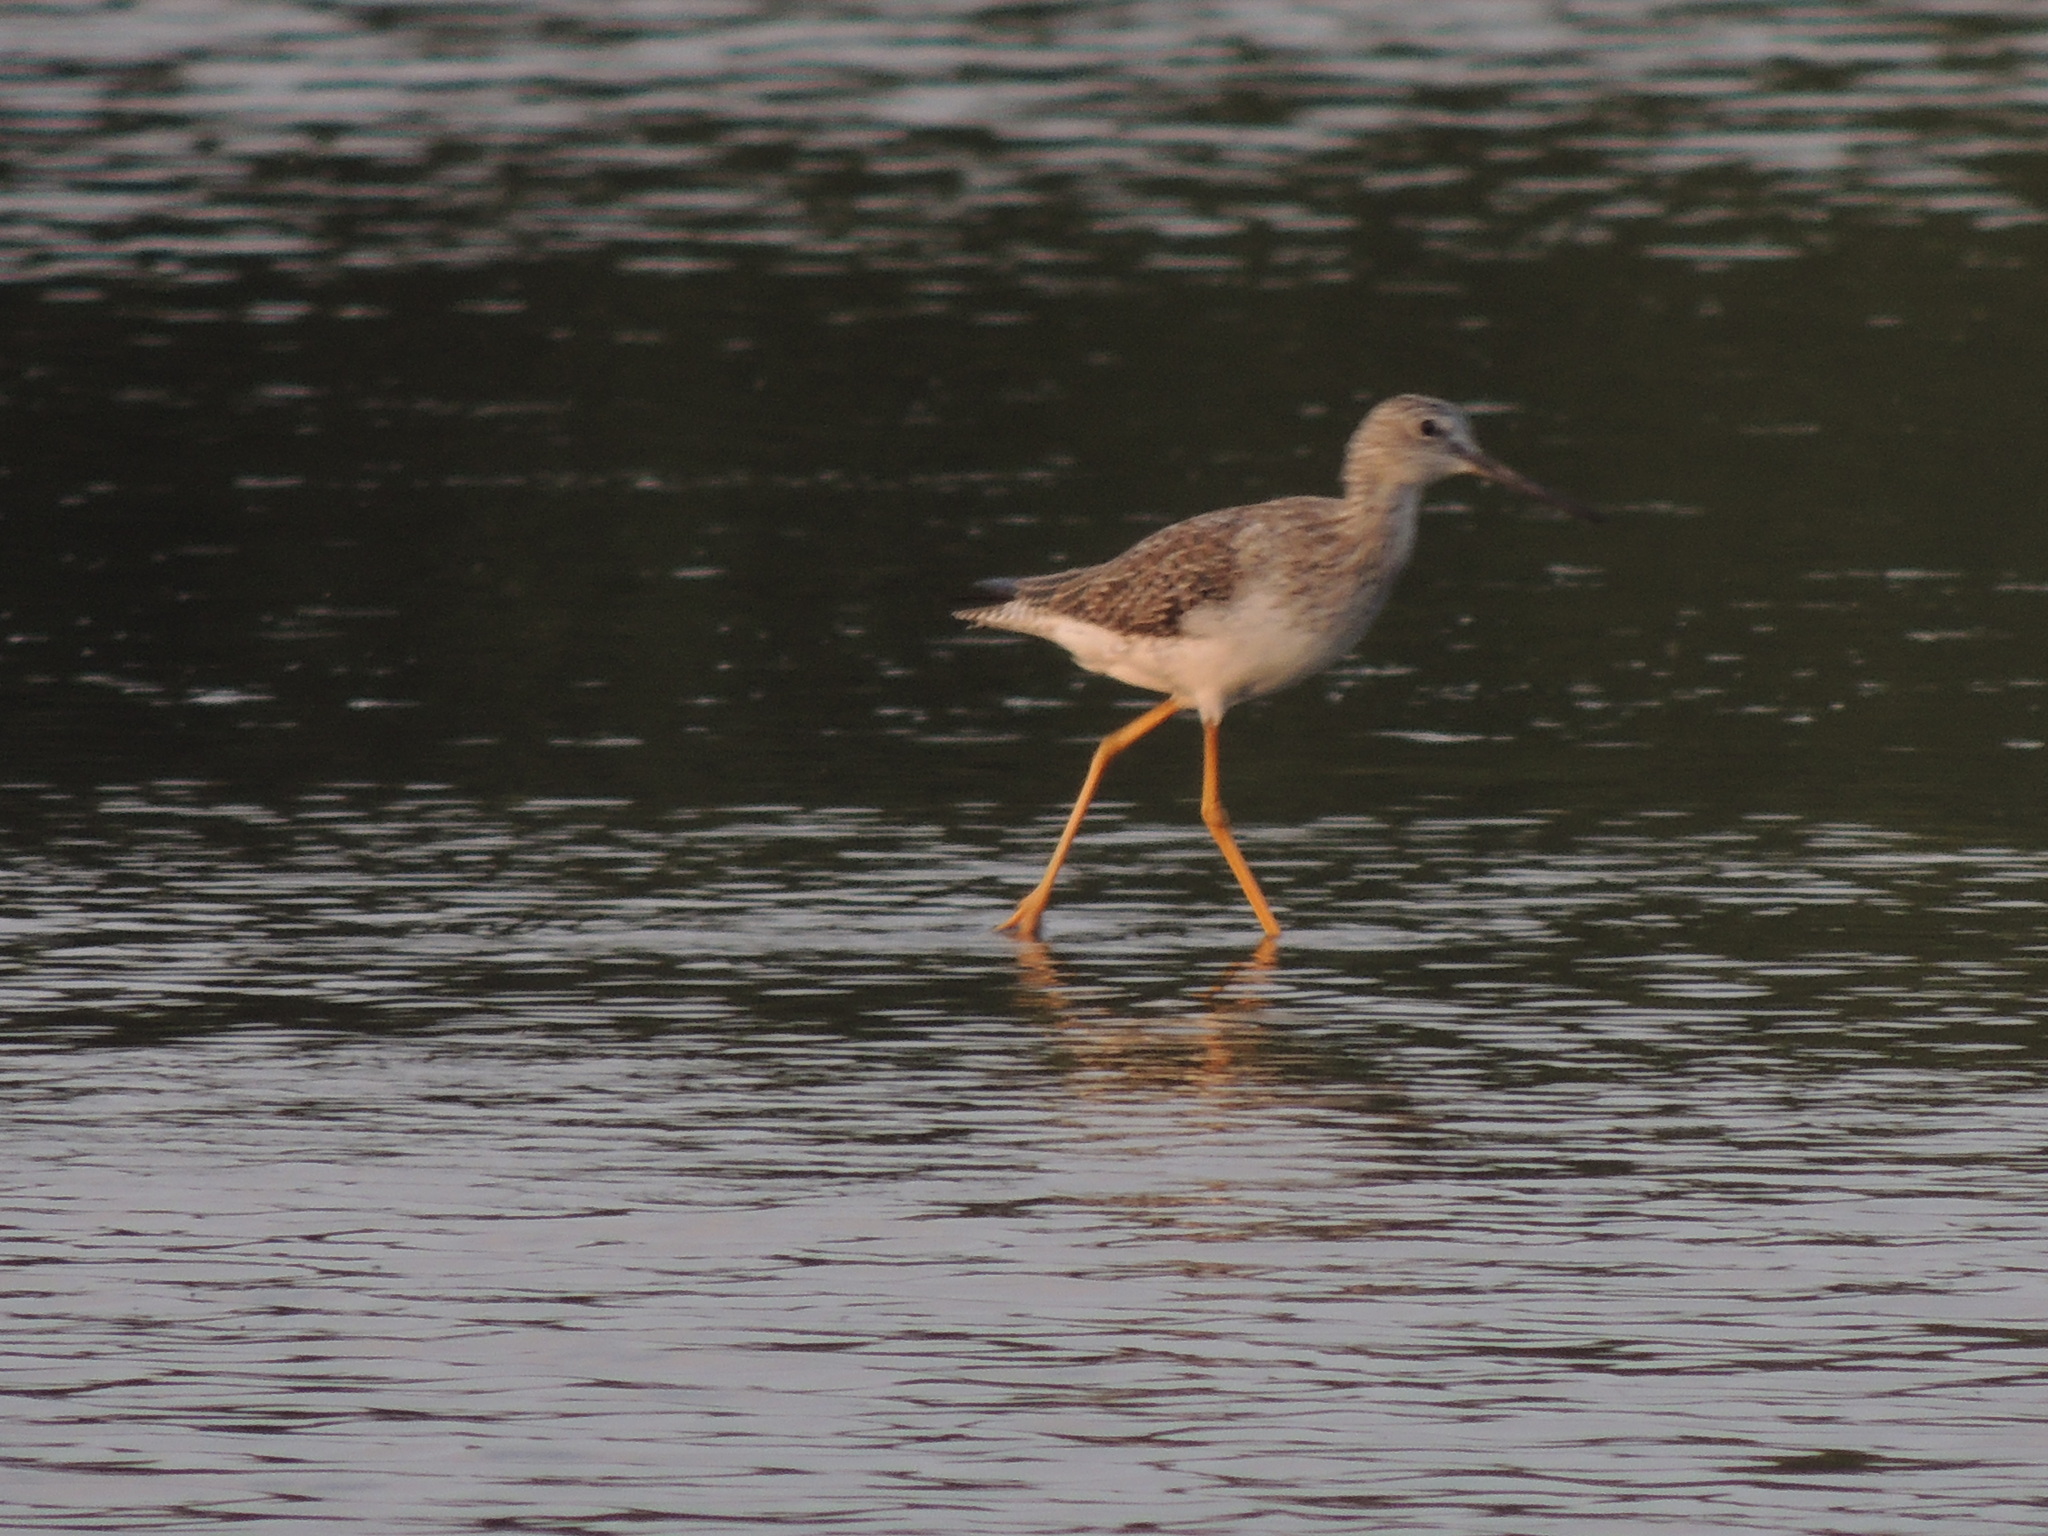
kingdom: Animalia
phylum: Chordata
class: Aves
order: Charadriiformes
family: Scolopacidae
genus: Tringa
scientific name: Tringa melanoleuca
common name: Greater yellowlegs
